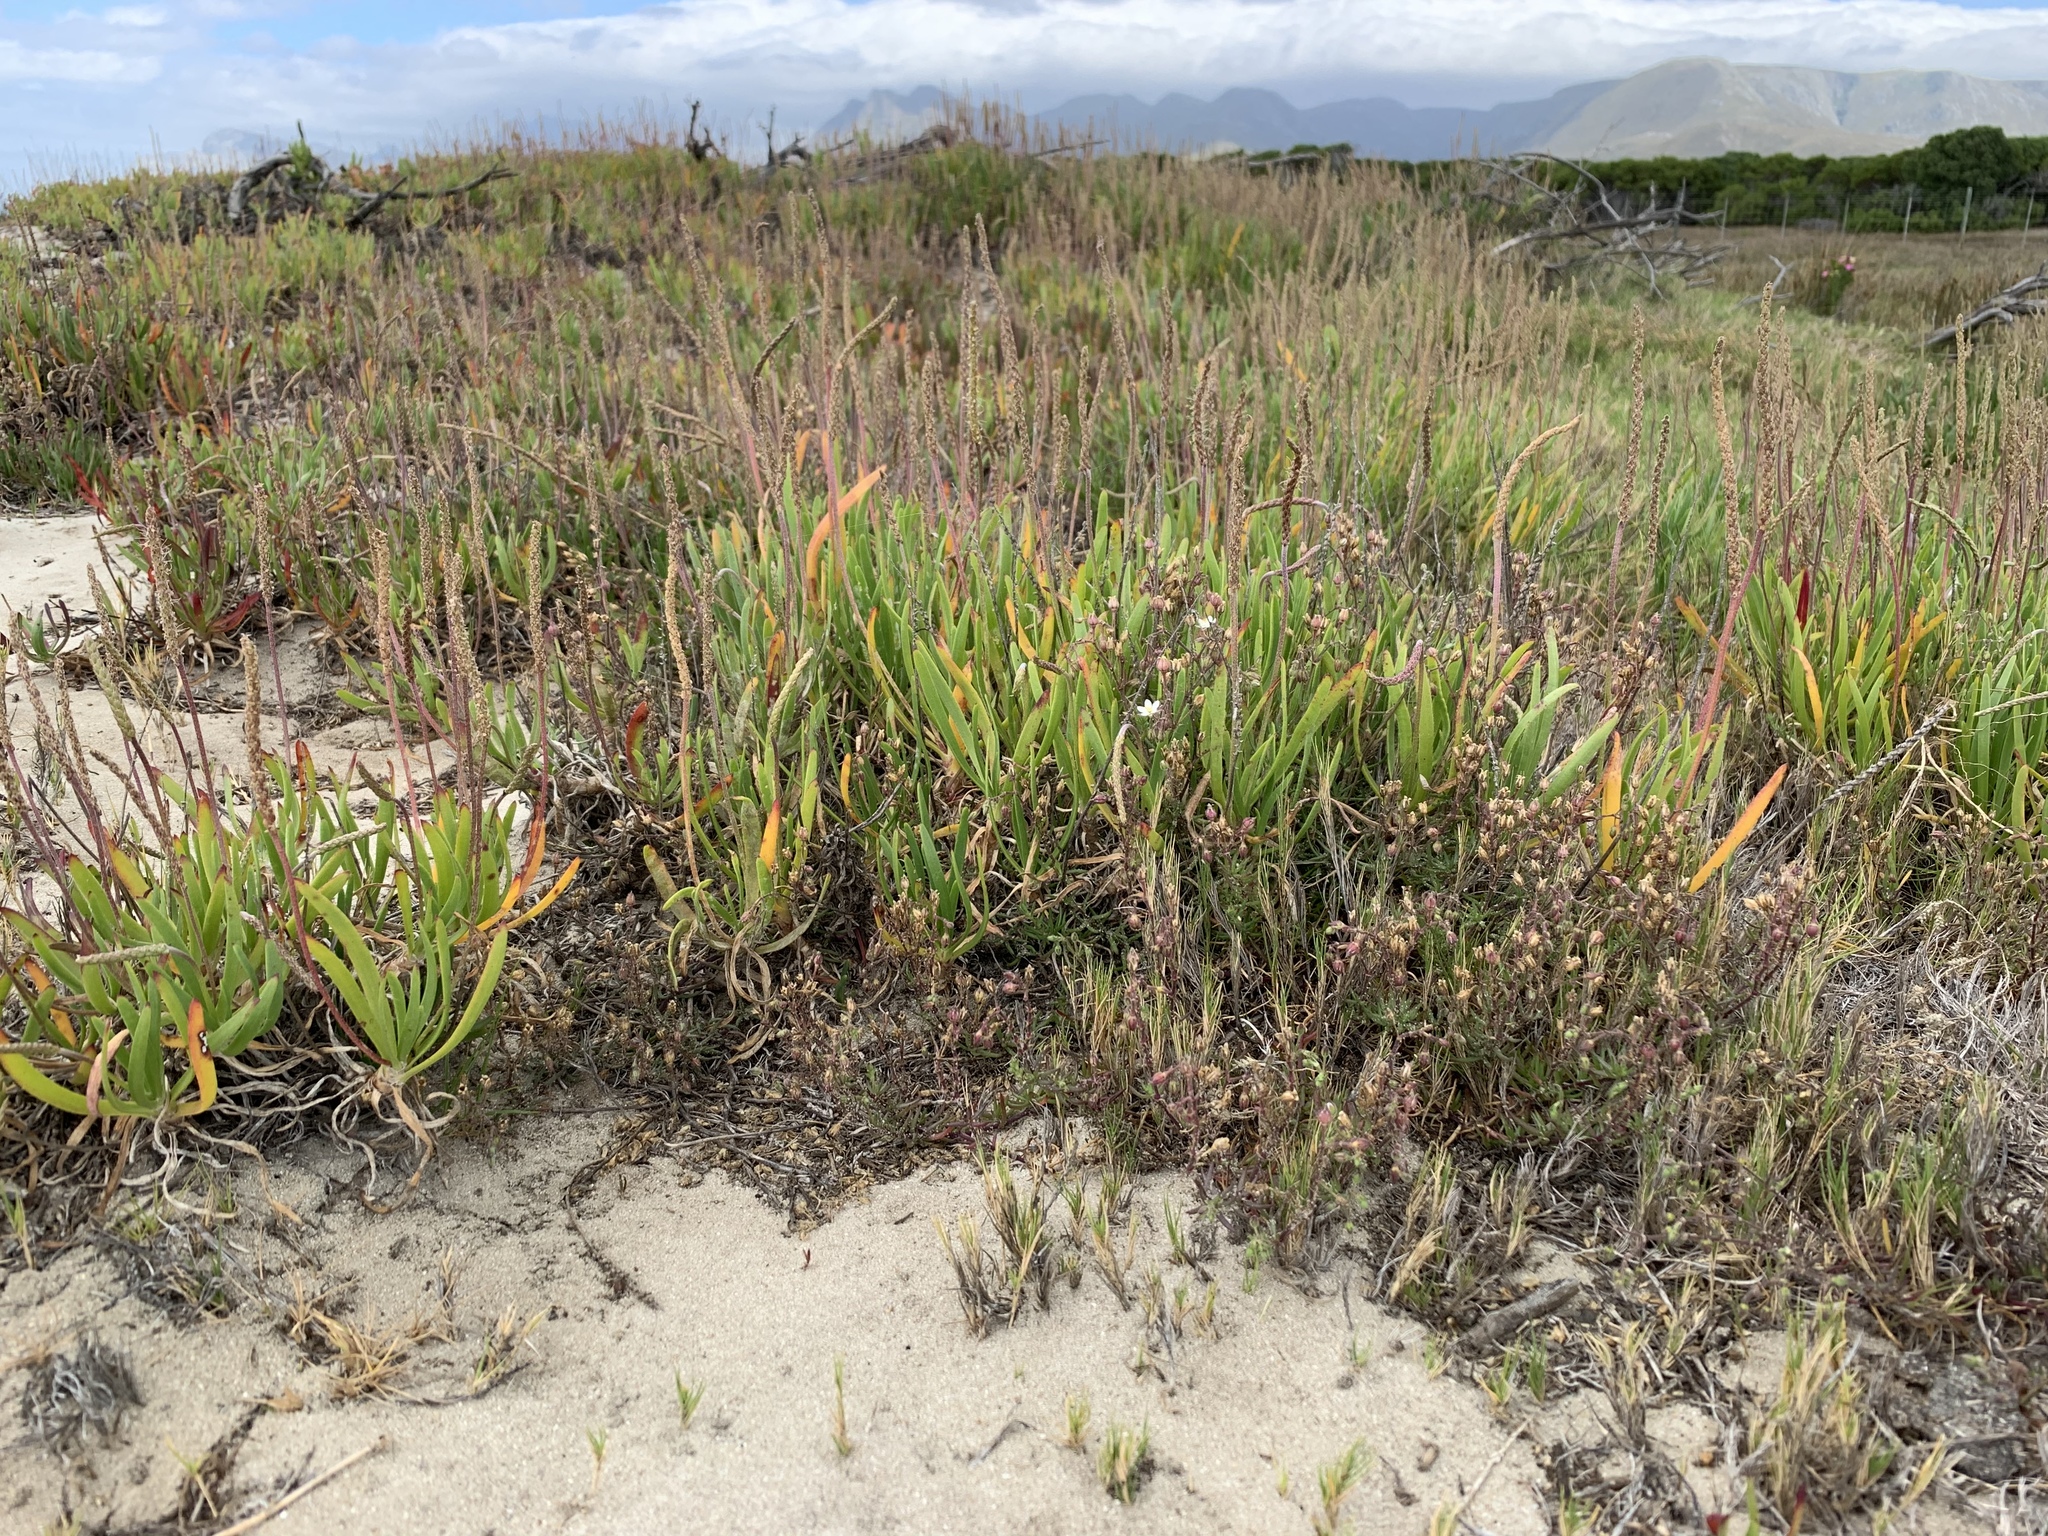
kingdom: Plantae
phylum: Tracheophyta
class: Magnoliopsida
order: Lamiales
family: Plantaginaceae
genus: Plantago
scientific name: Plantago carnosa
